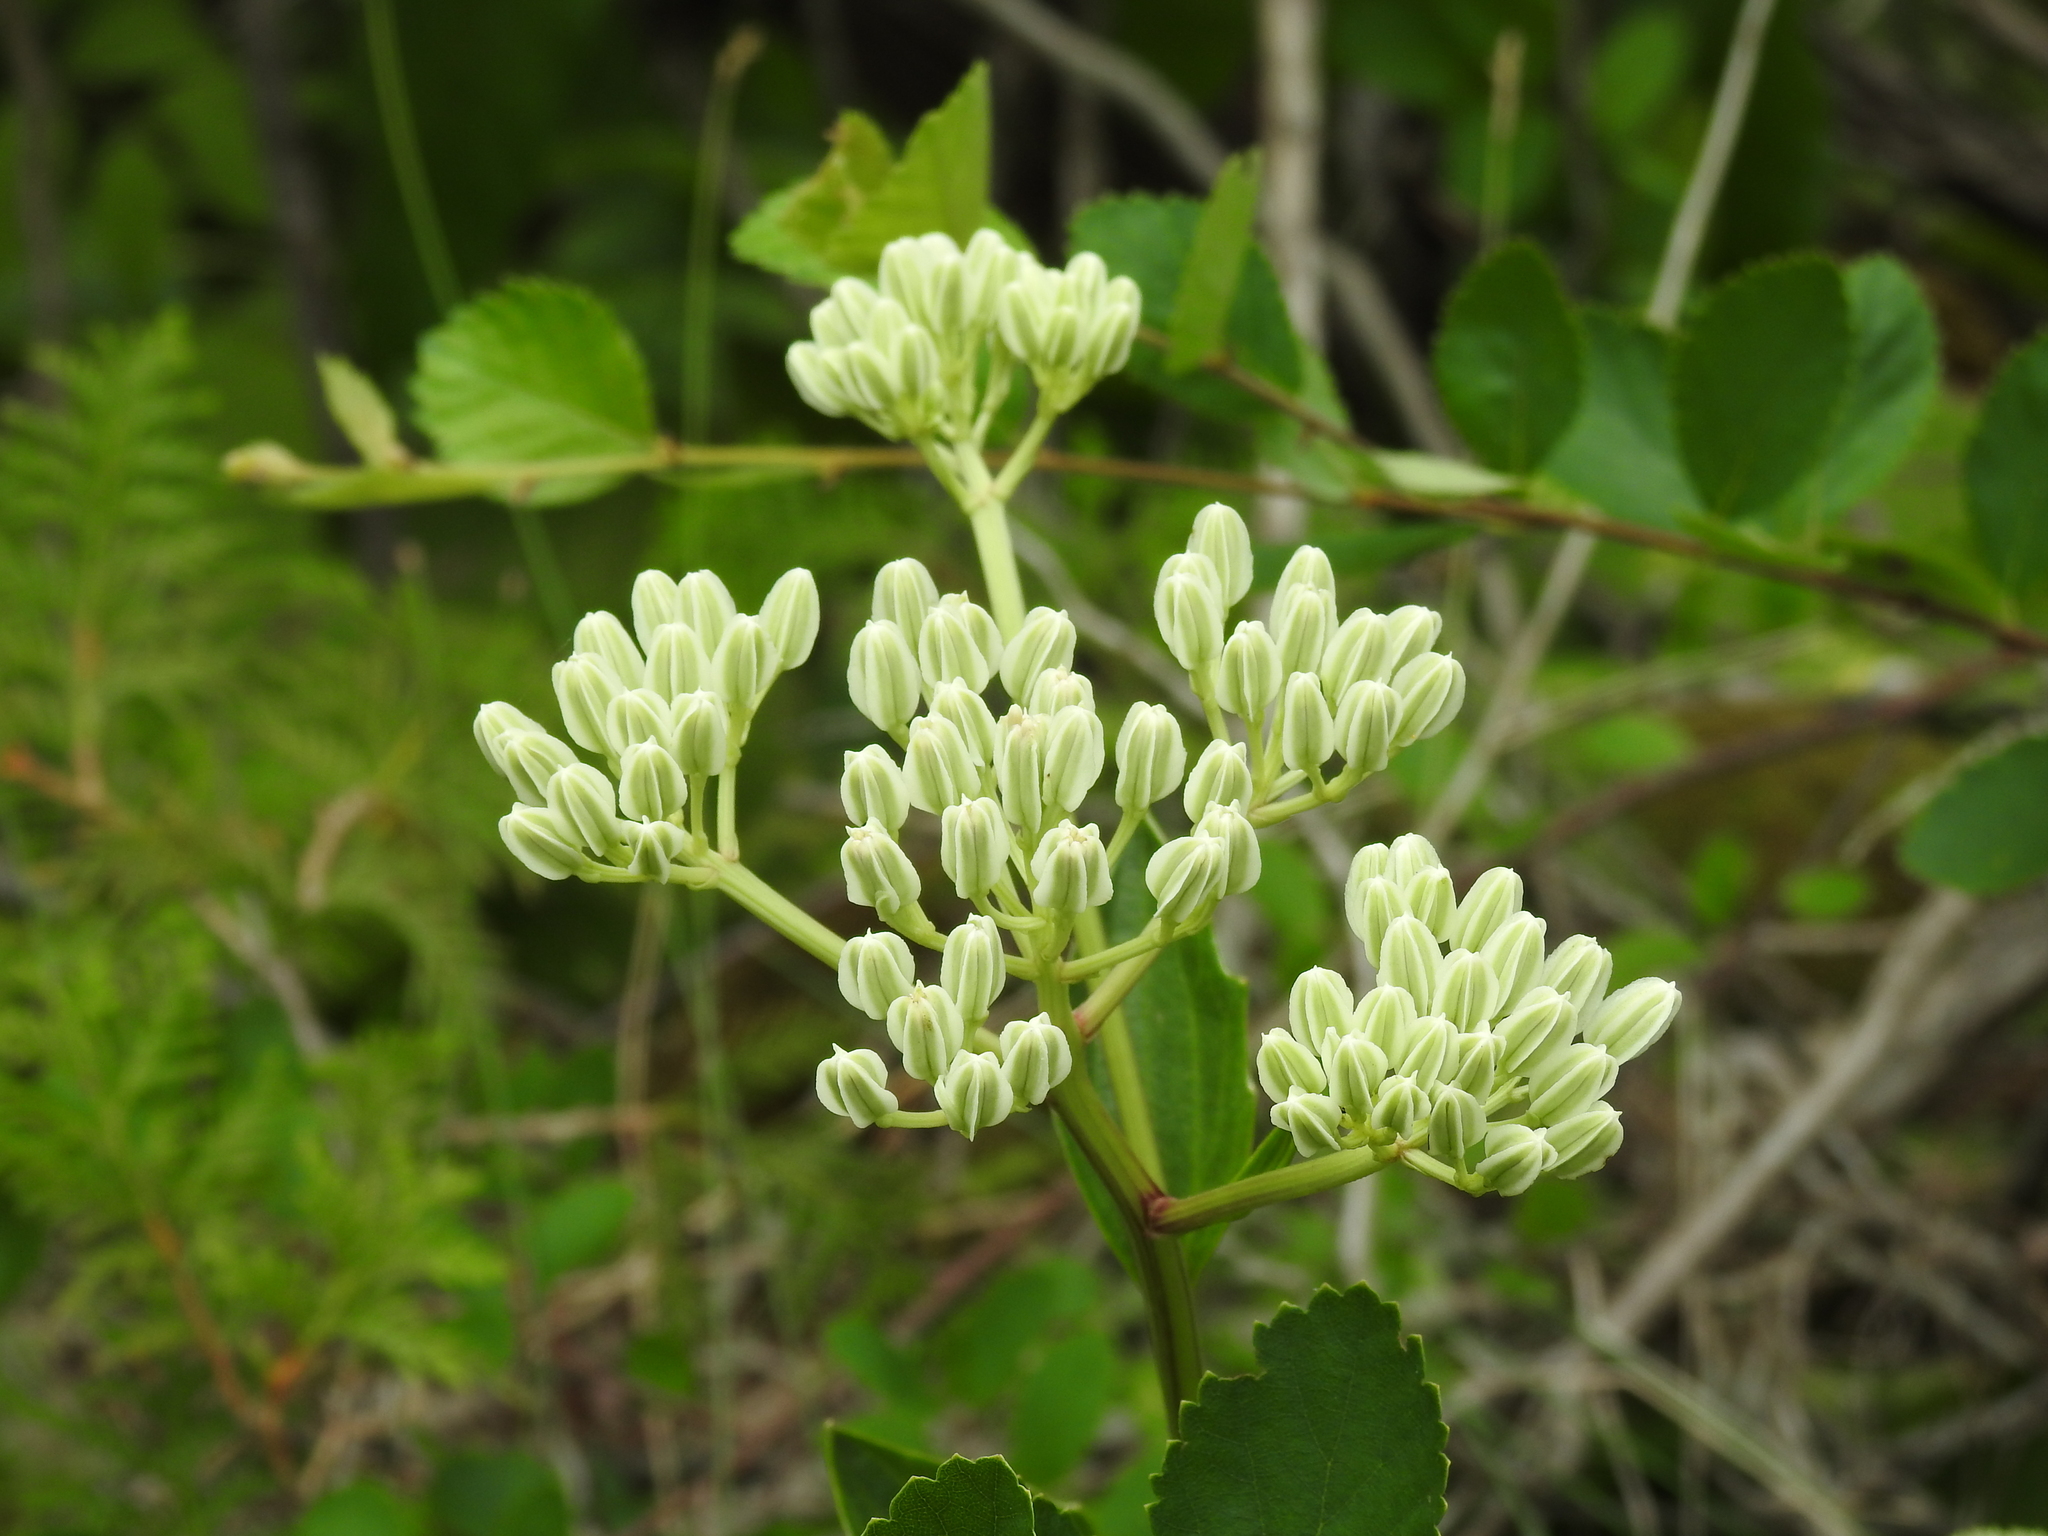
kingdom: Plantae
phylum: Tracheophyta
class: Magnoliopsida
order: Asterales
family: Asteraceae
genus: Arnoglossum
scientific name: Arnoglossum plantagineum
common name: Groove-stemmed indian-plantain
